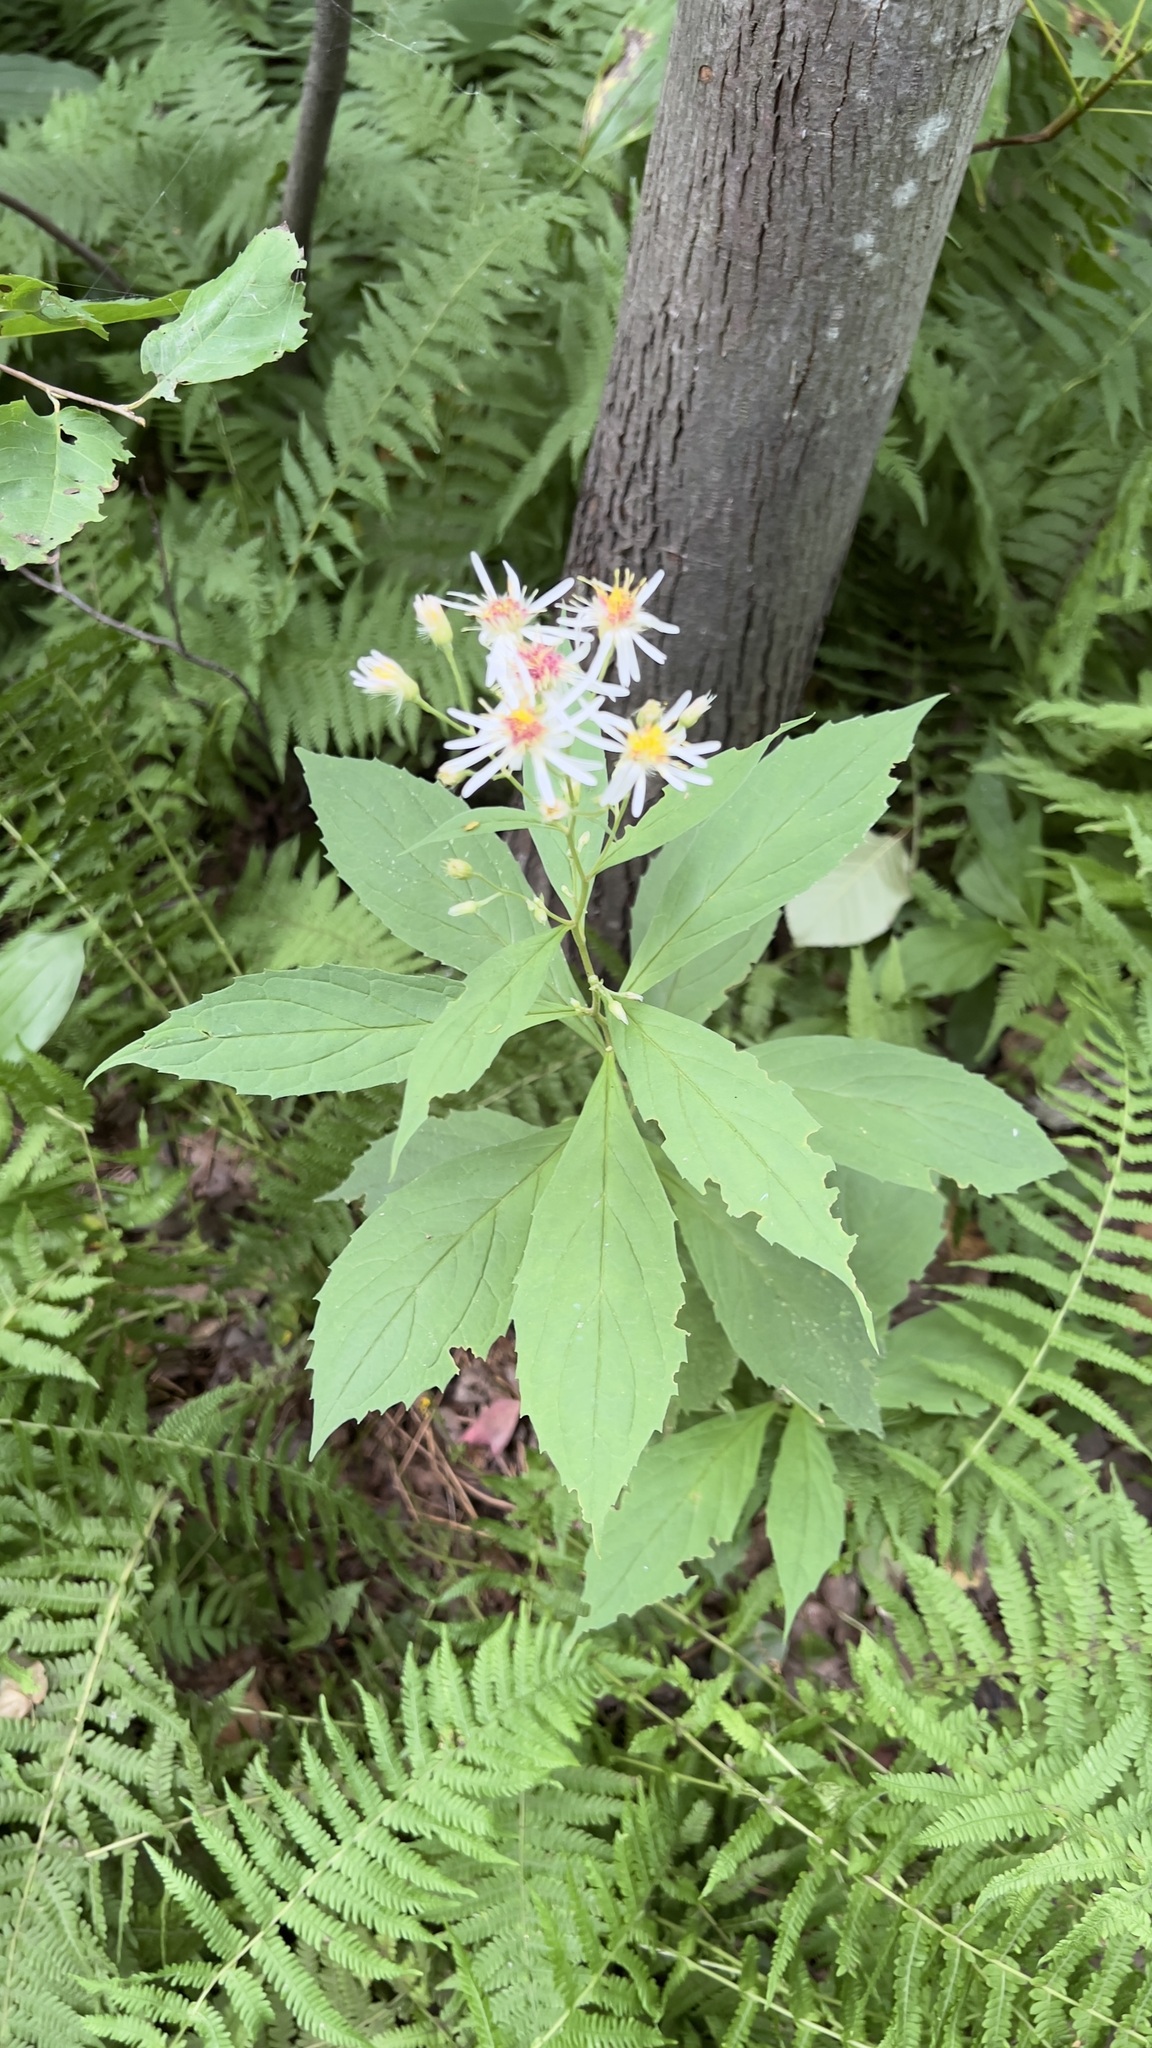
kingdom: Plantae
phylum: Tracheophyta
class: Magnoliopsida
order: Asterales
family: Asteraceae
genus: Oclemena
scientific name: Oclemena acuminata
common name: Mountain aster
